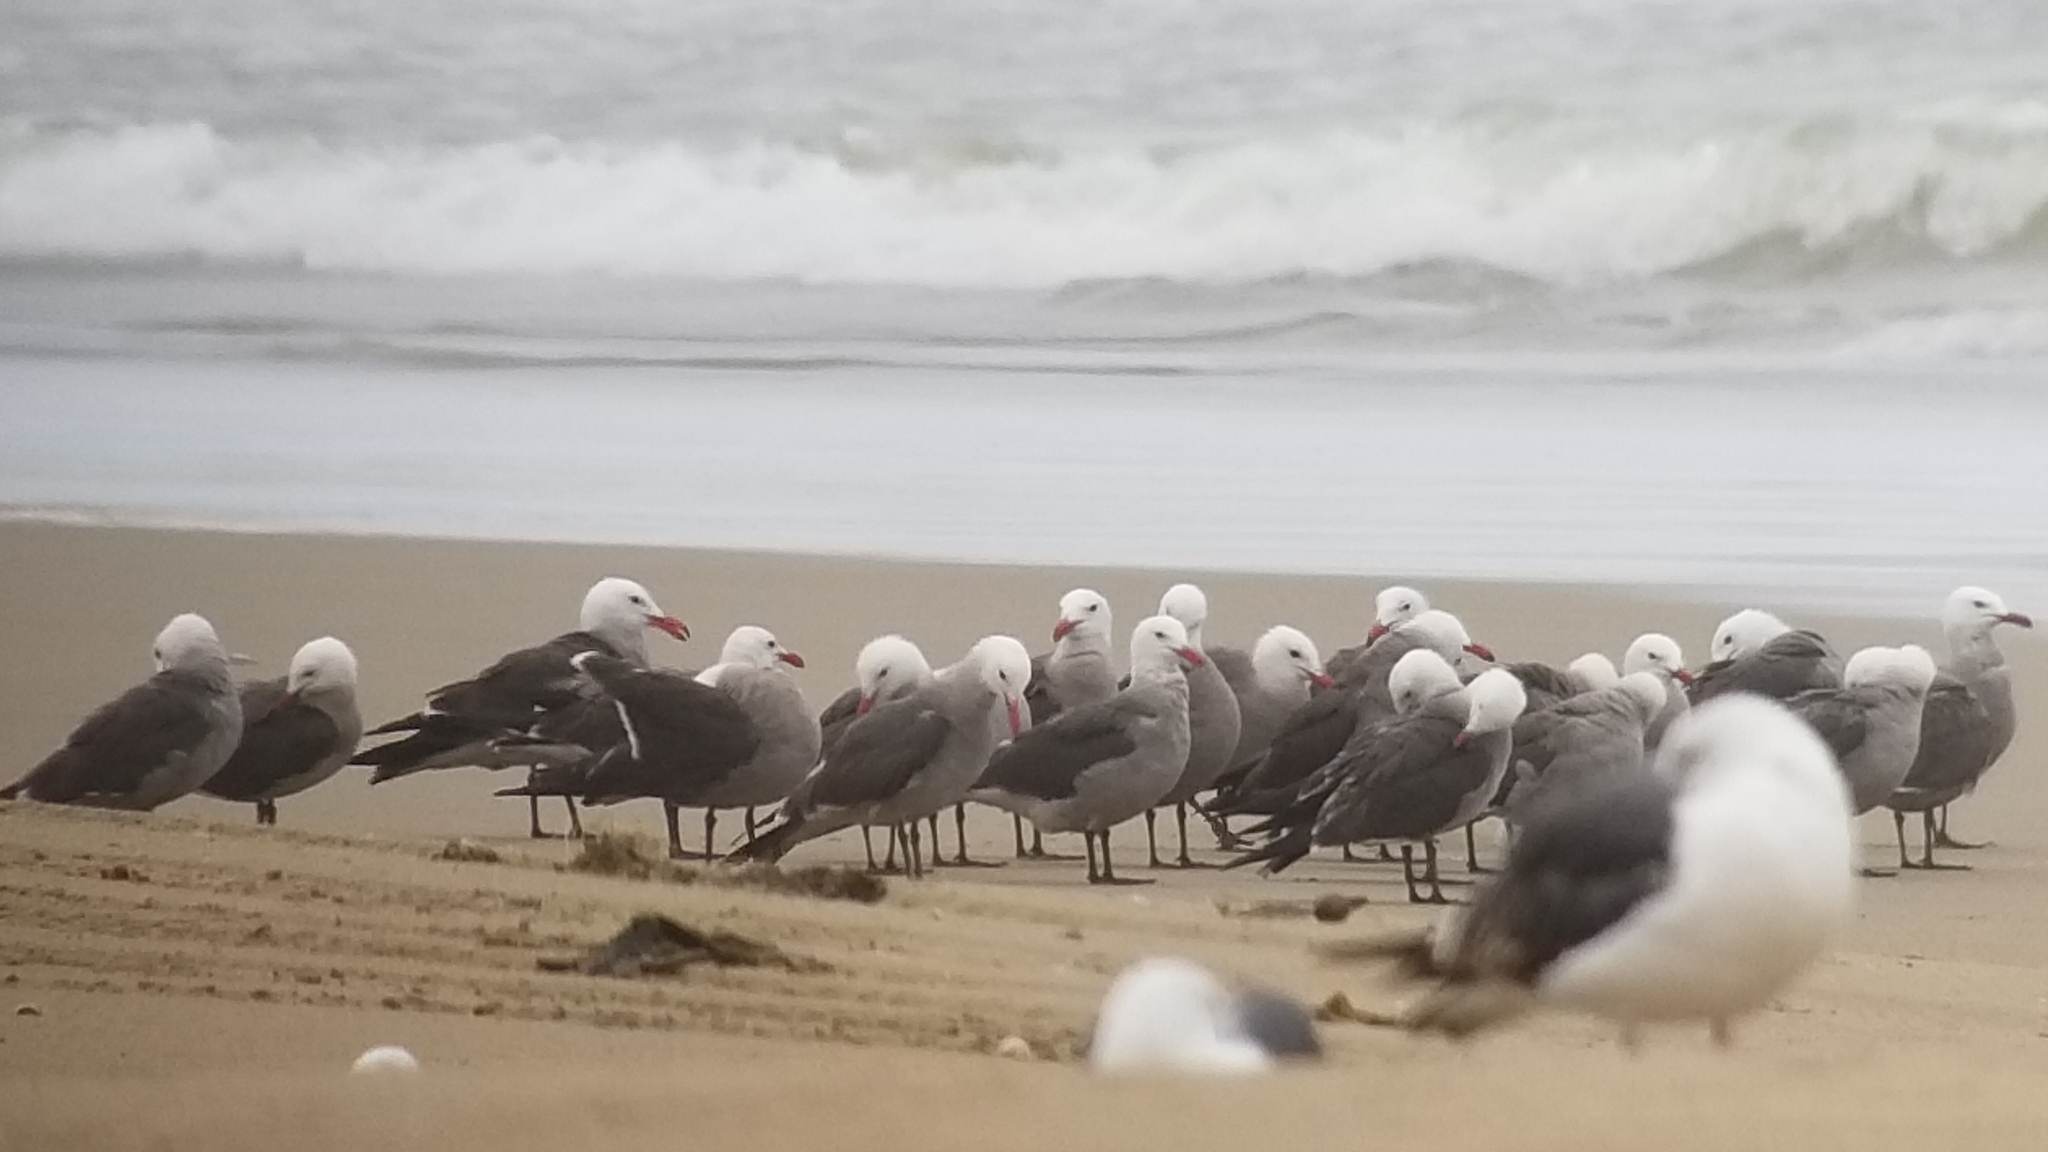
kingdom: Animalia
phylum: Chordata
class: Aves
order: Charadriiformes
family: Laridae
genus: Larus
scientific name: Larus heermanni
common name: Heermann's gull
